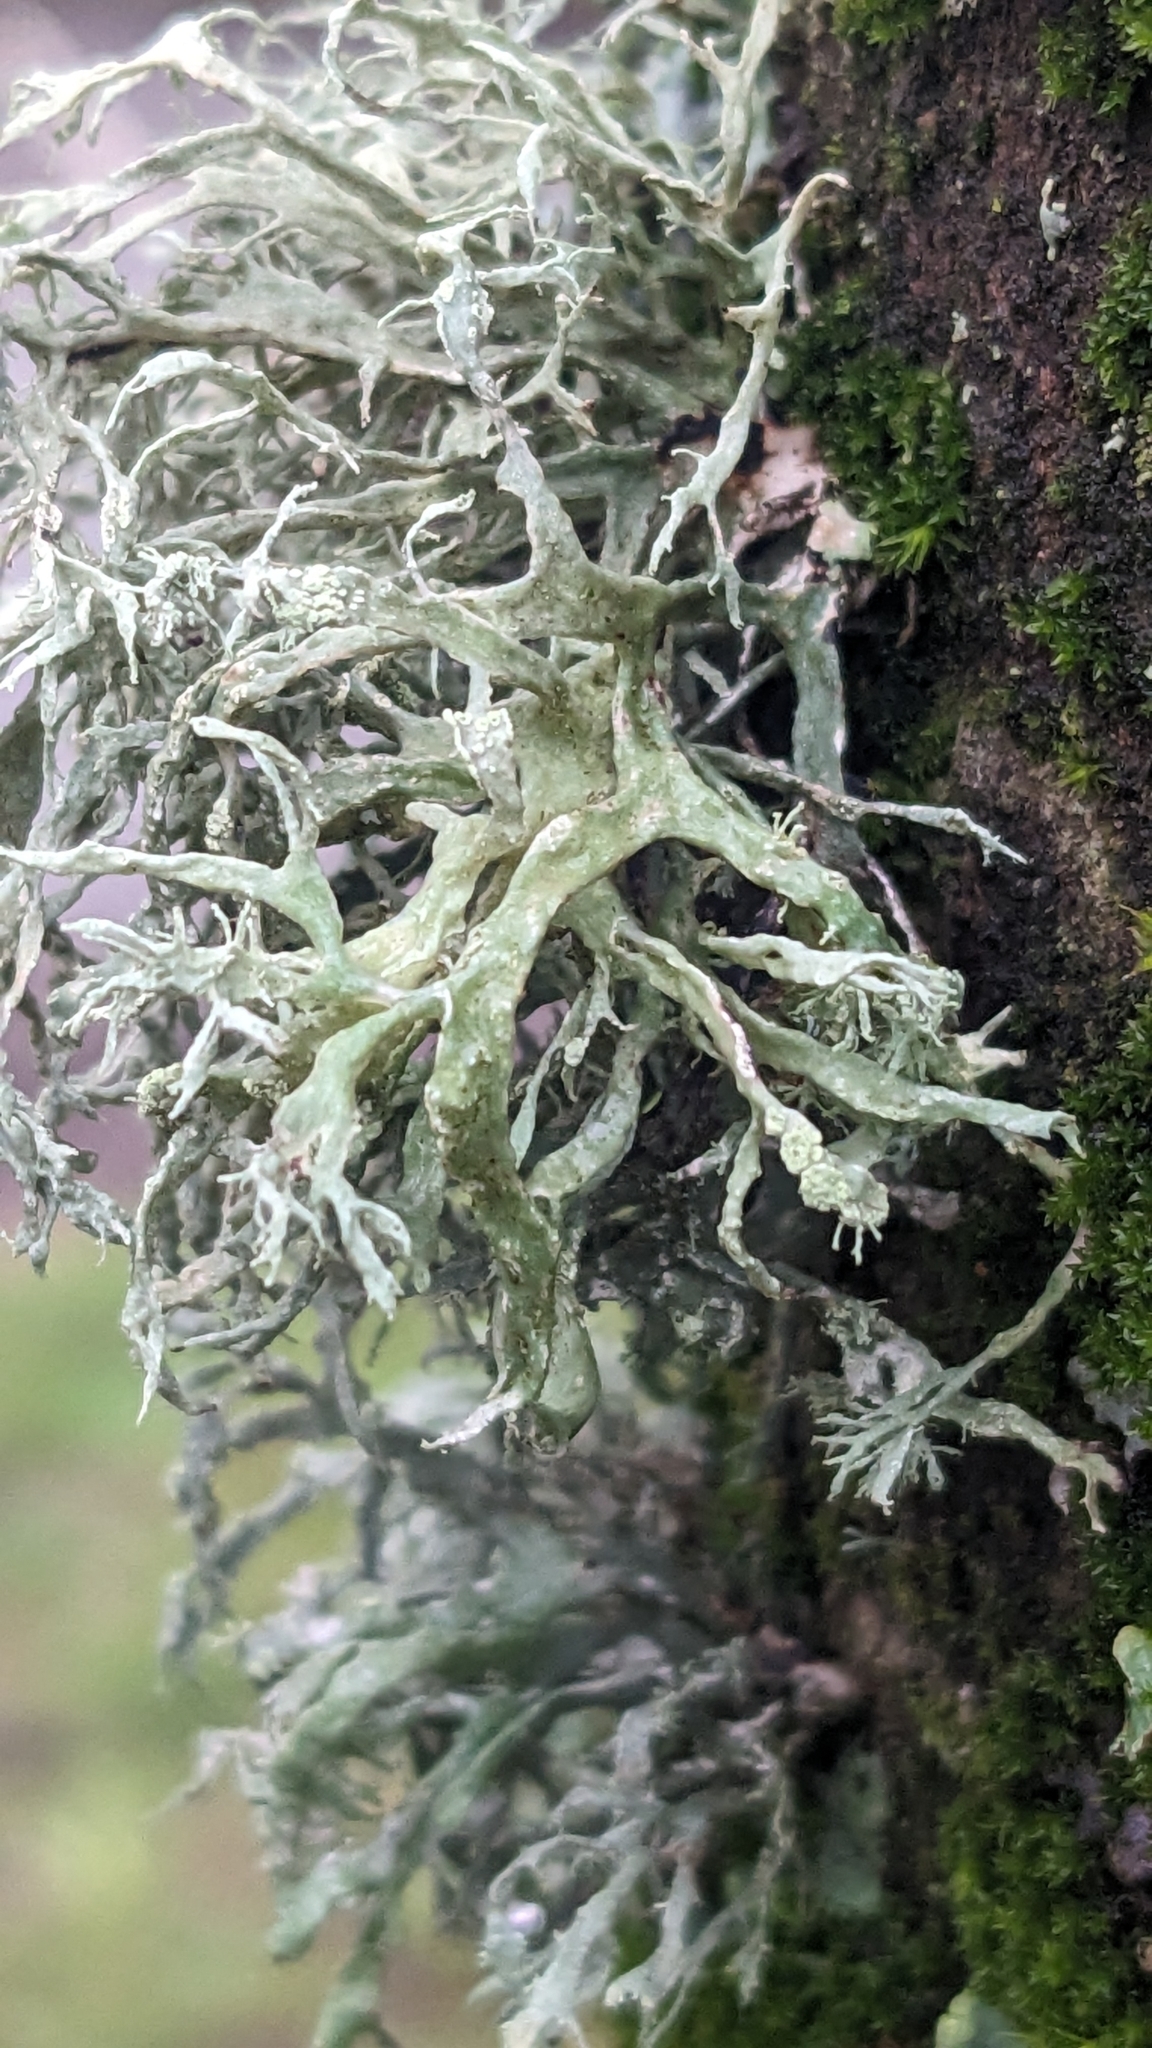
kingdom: Fungi
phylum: Ascomycota
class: Lecanoromycetes
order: Lecanorales
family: Parmeliaceae
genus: Evernia
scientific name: Evernia prunastri
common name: Oak moss
